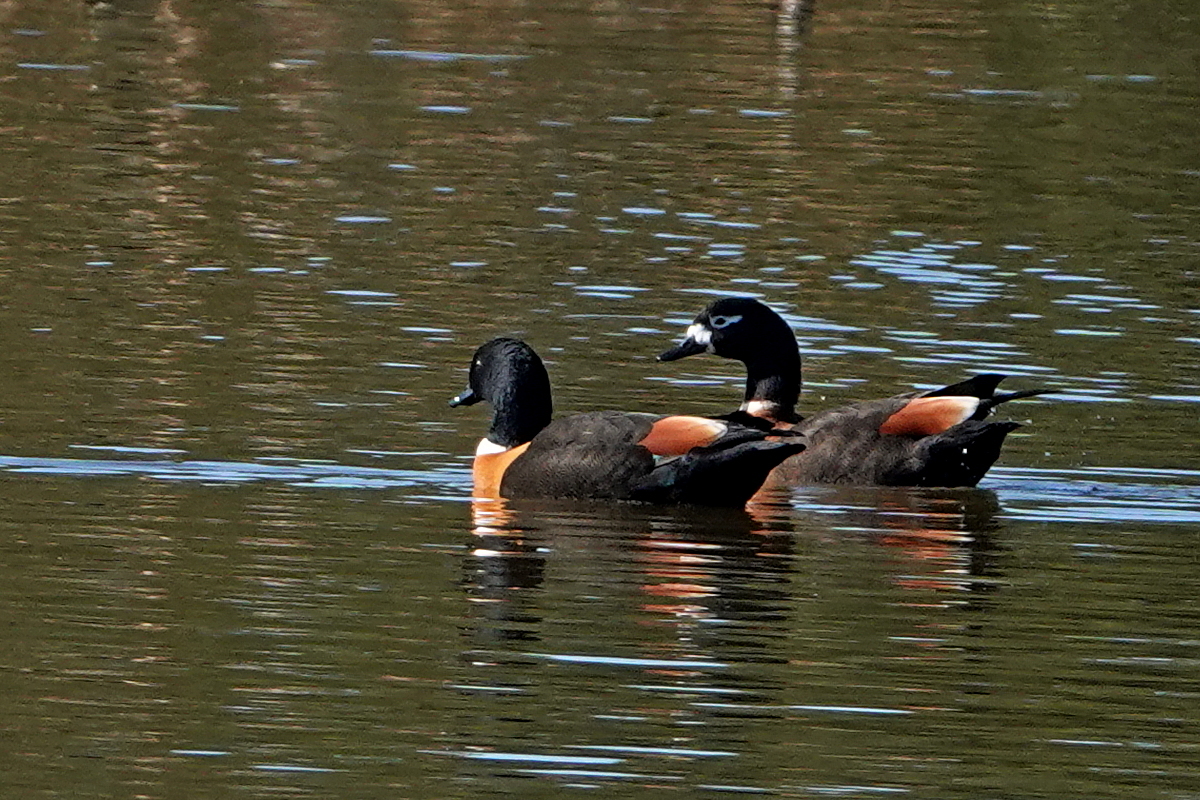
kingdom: Animalia
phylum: Chordata
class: Aves
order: Anseriformes
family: Anatidae
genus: Tadorna
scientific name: Tadorna tadornoides
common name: Australian shelduck
